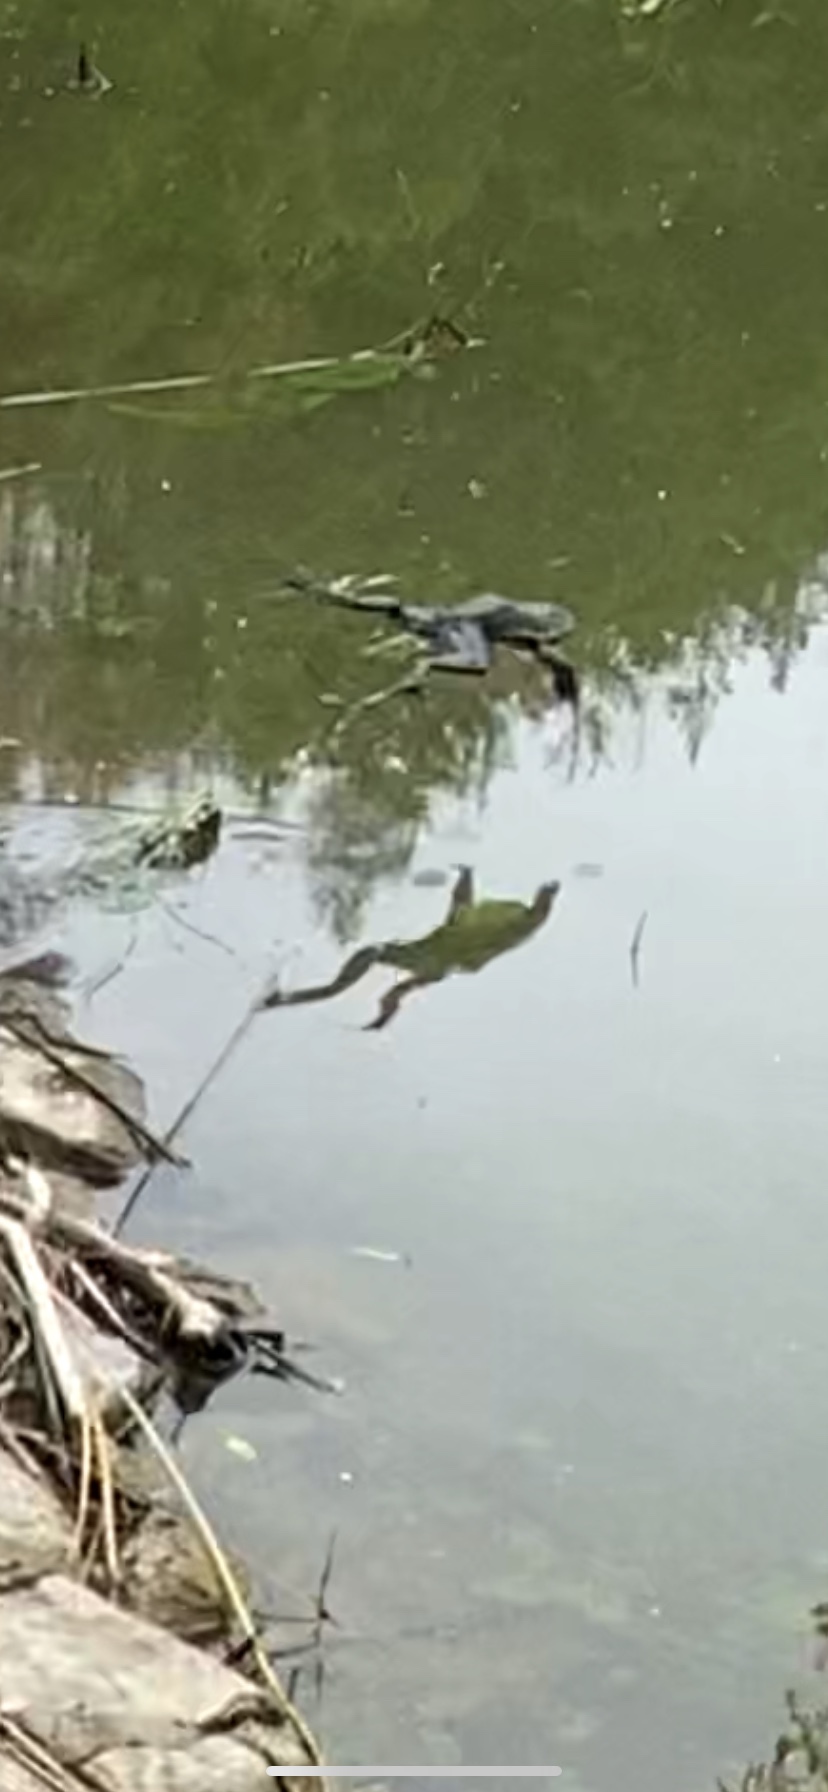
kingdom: Animalia
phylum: Chordata
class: Amphibia
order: Anura
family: Ranidae
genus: Lithobates
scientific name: Lithobates catesbeianus
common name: American bullfrog
